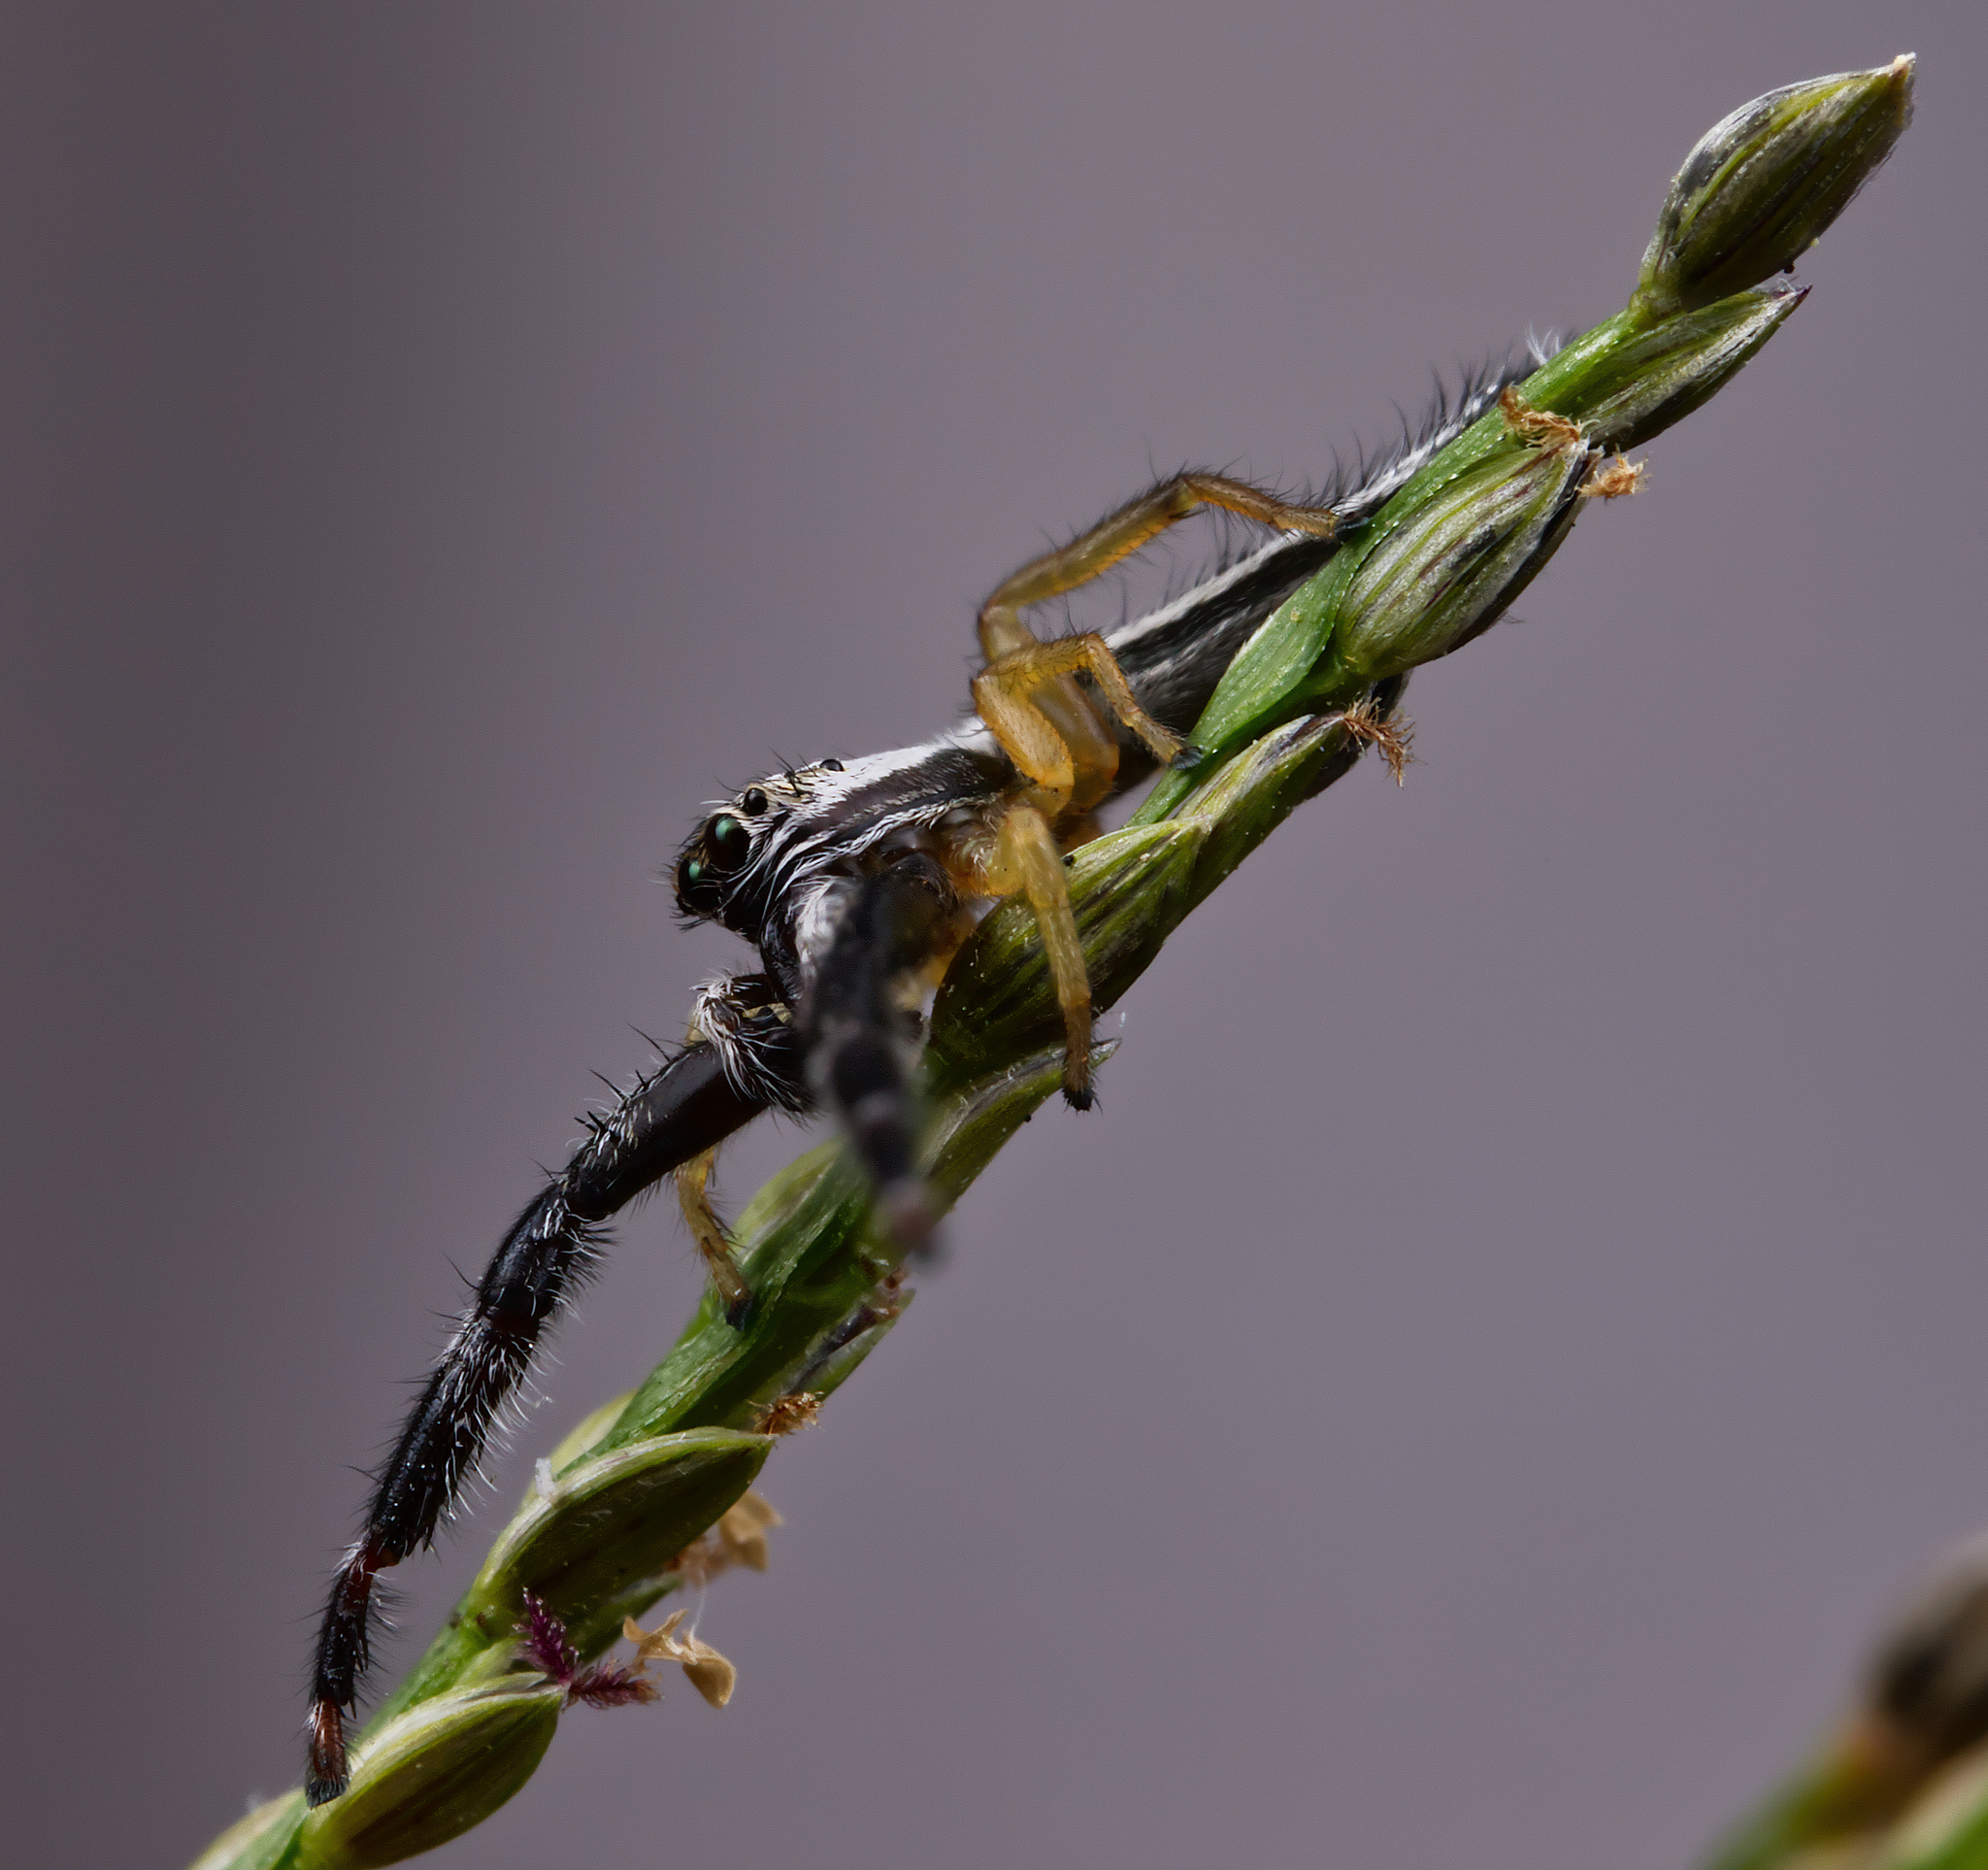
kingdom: Animalia
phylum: Arthropoda
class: Arachnida
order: Araneae
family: Salticidae
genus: Marpissa
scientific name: Marpissa pikei
